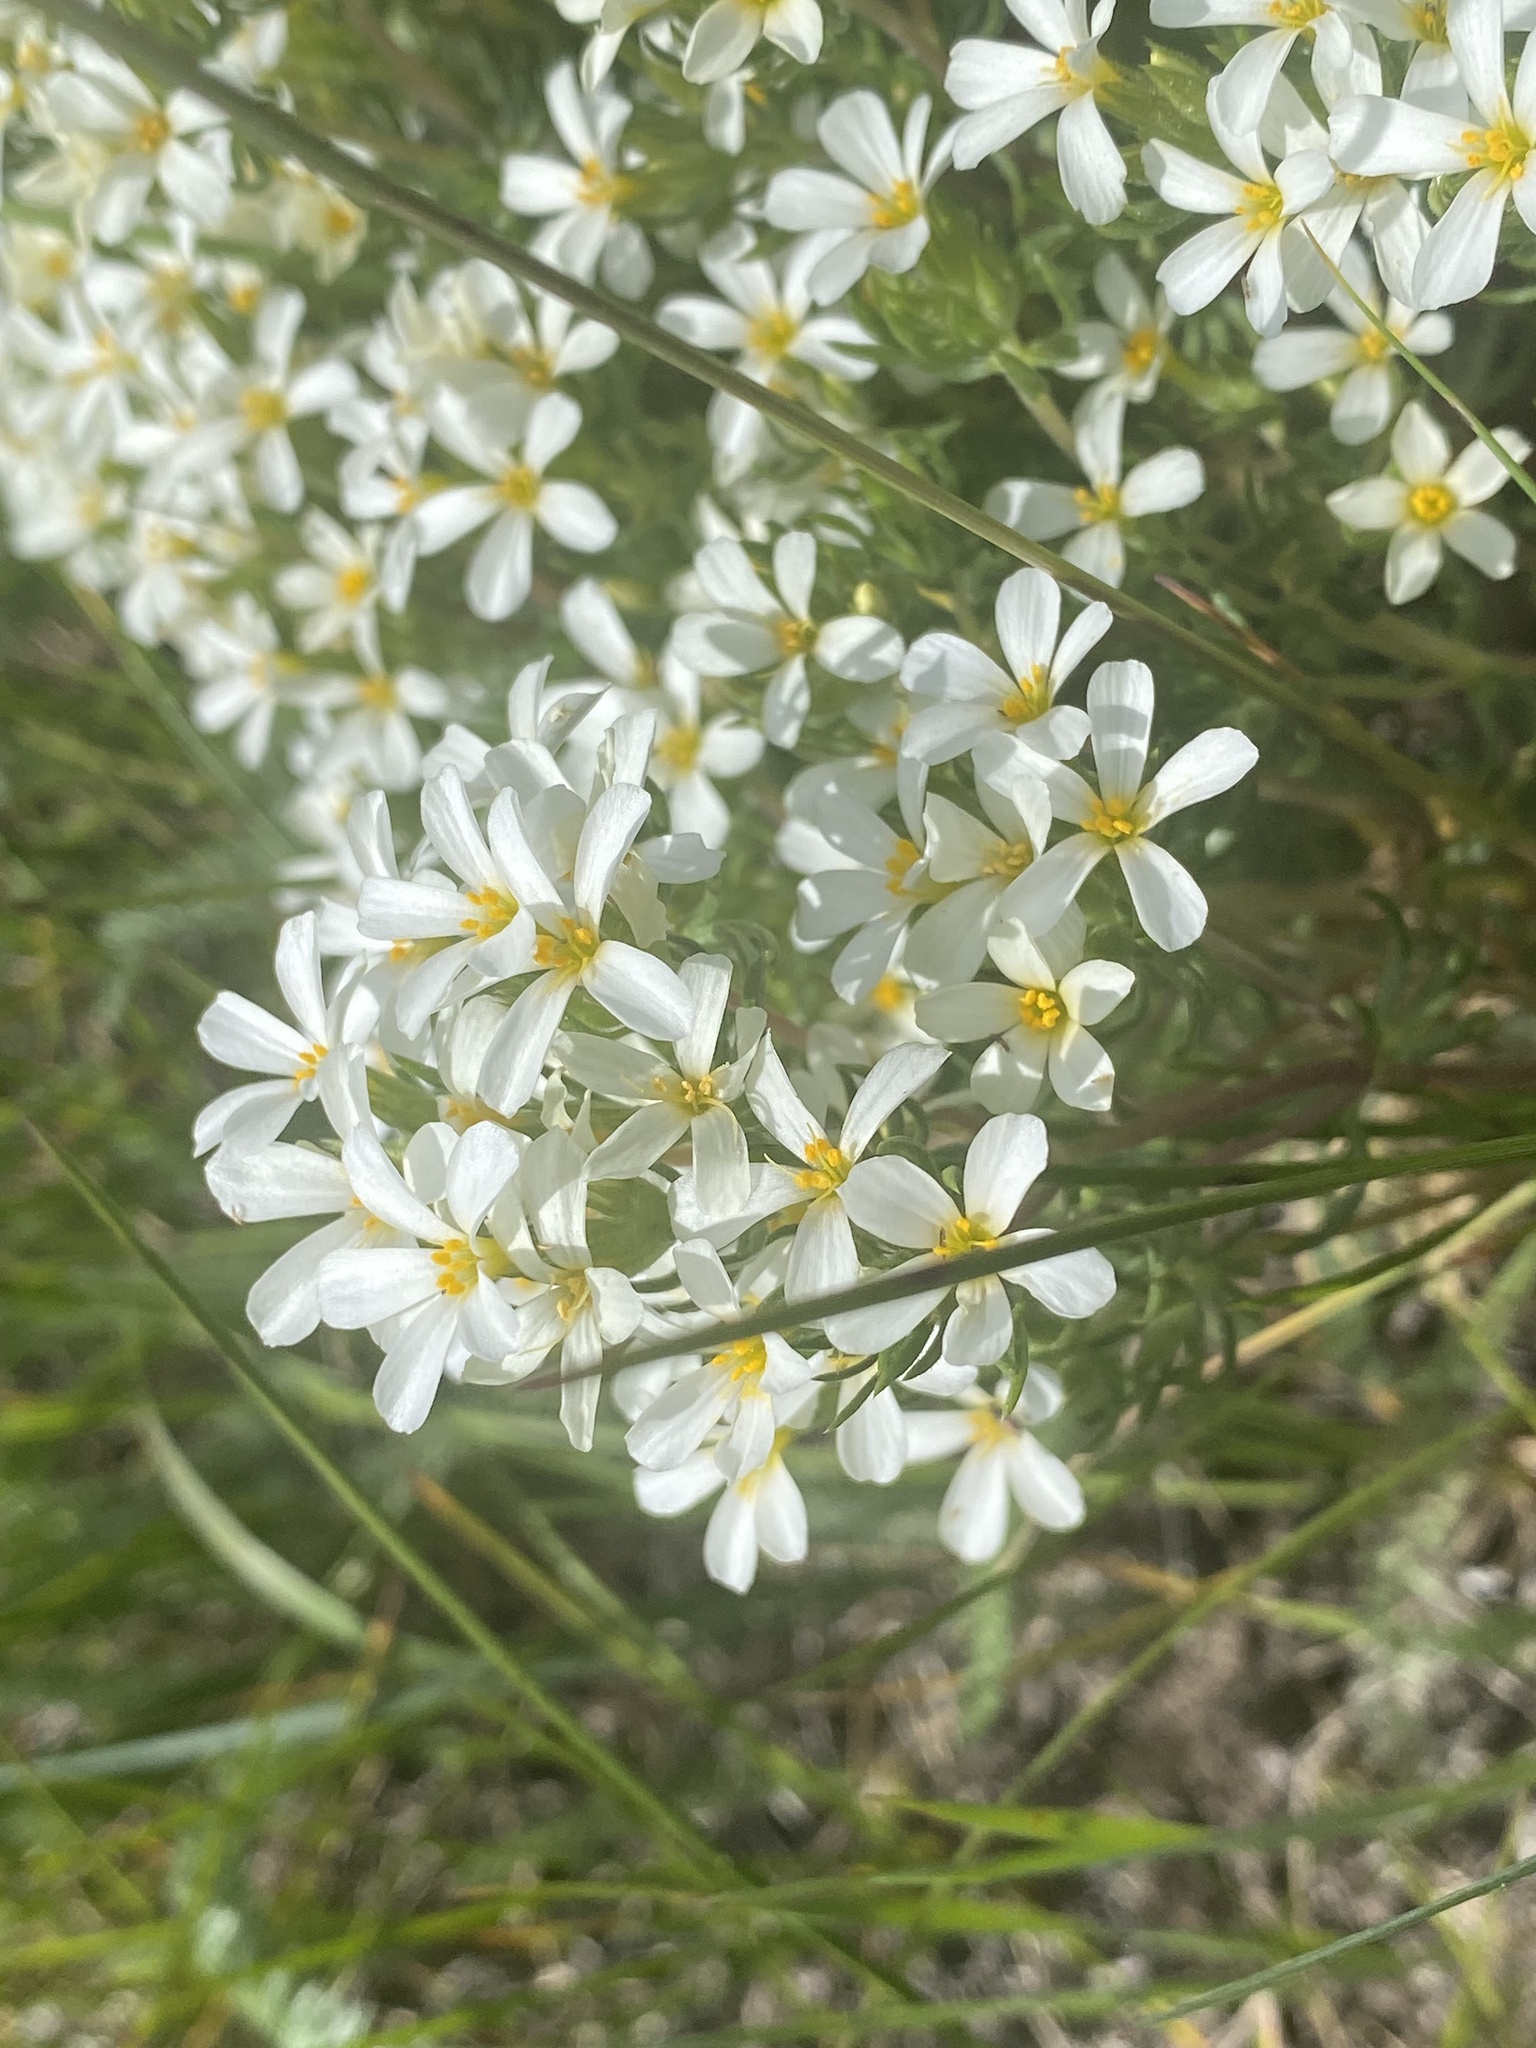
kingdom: Plantae
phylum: Tracheophyta
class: Magnoliopsida
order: Ericales
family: Polemoniaceae
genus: Leptosiphon
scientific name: Leptosiphon nuttallii
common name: Nuttall's linanthus
